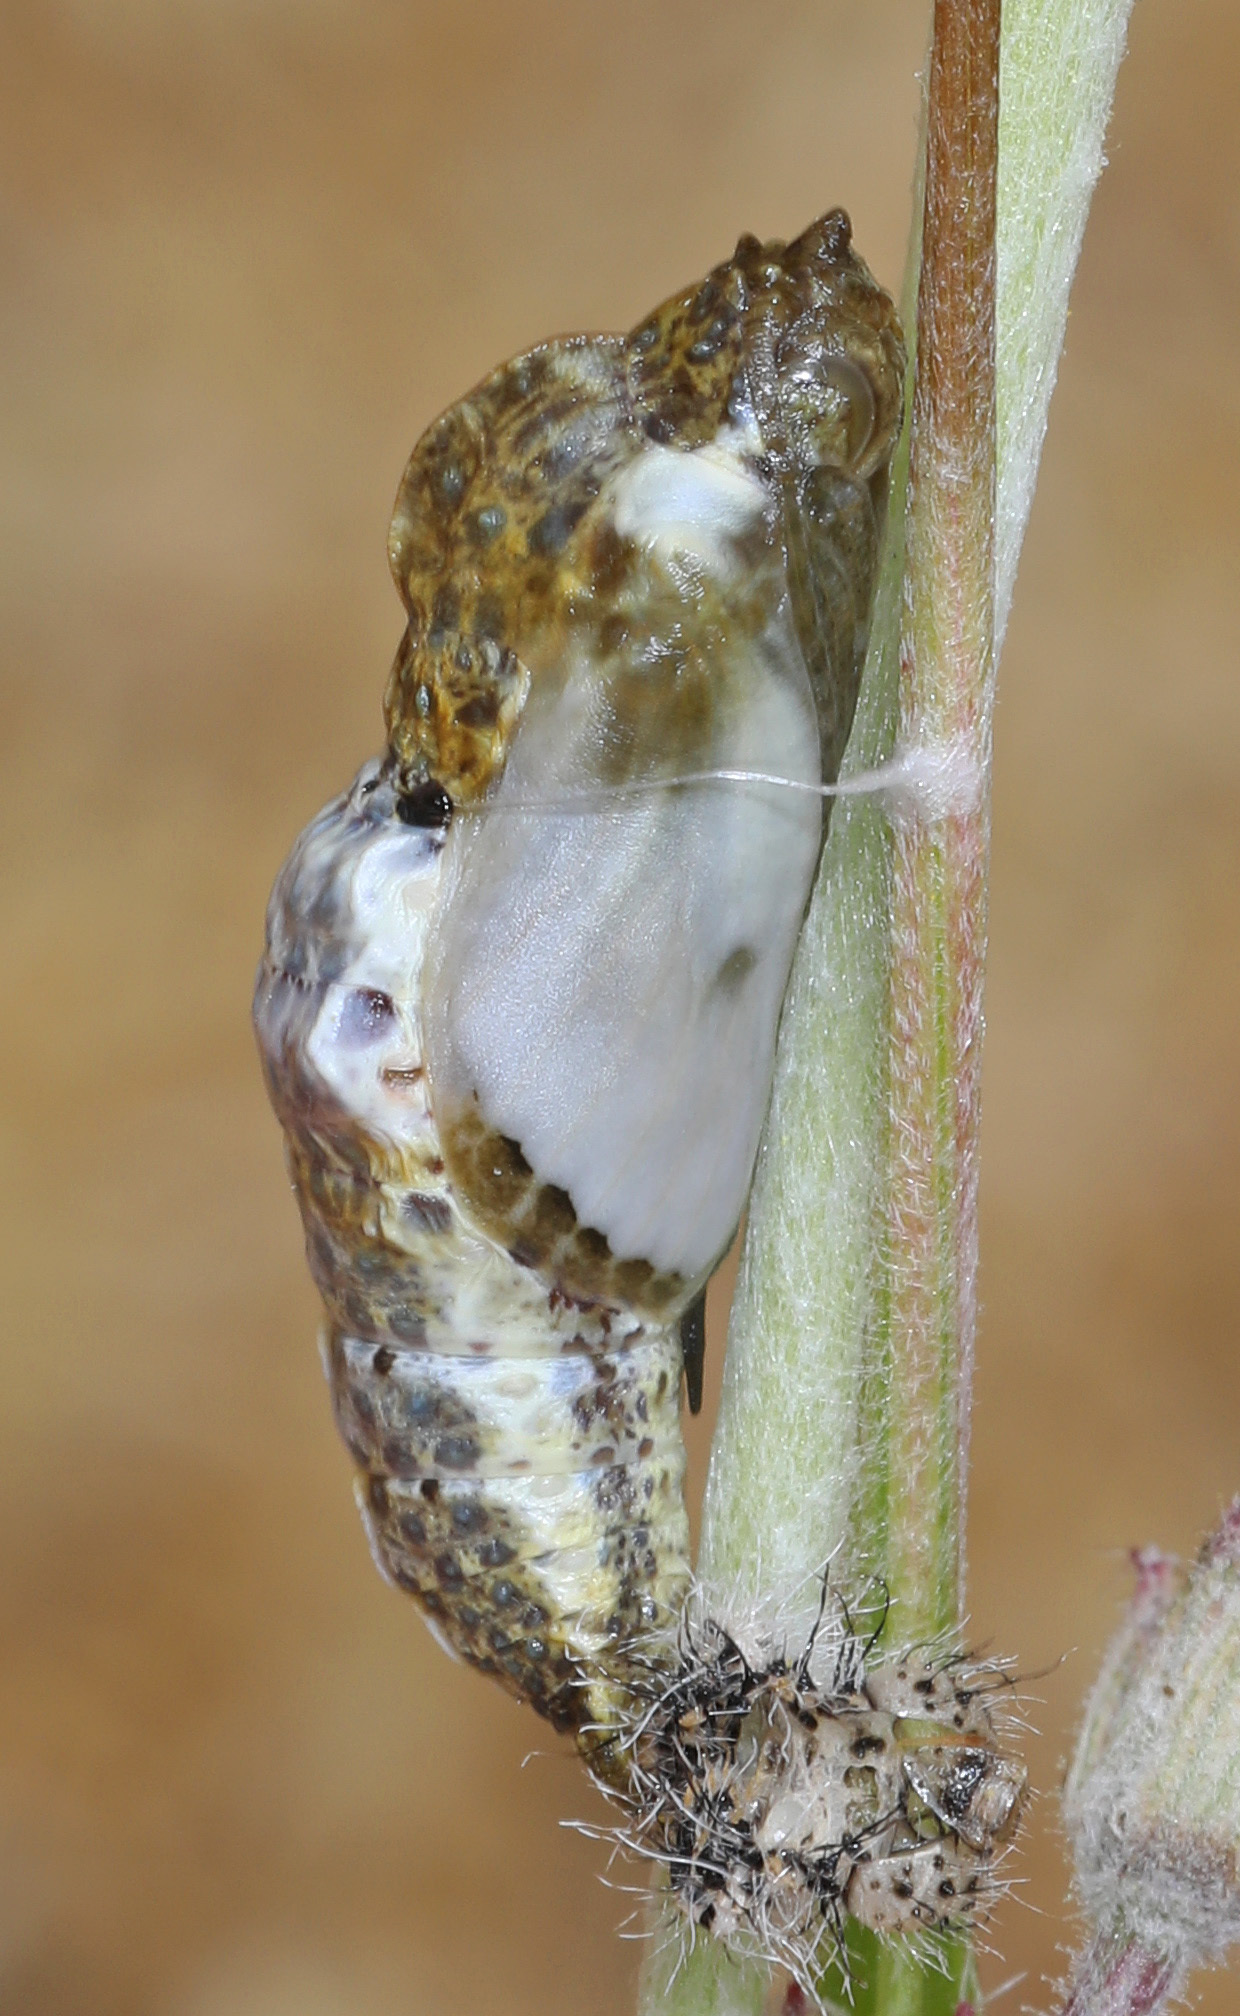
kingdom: Animalia
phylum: Arthropoda
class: Insecta
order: Lepidoptera
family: Pieridae
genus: Pontia
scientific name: Pontia protodice
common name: Checkered white
